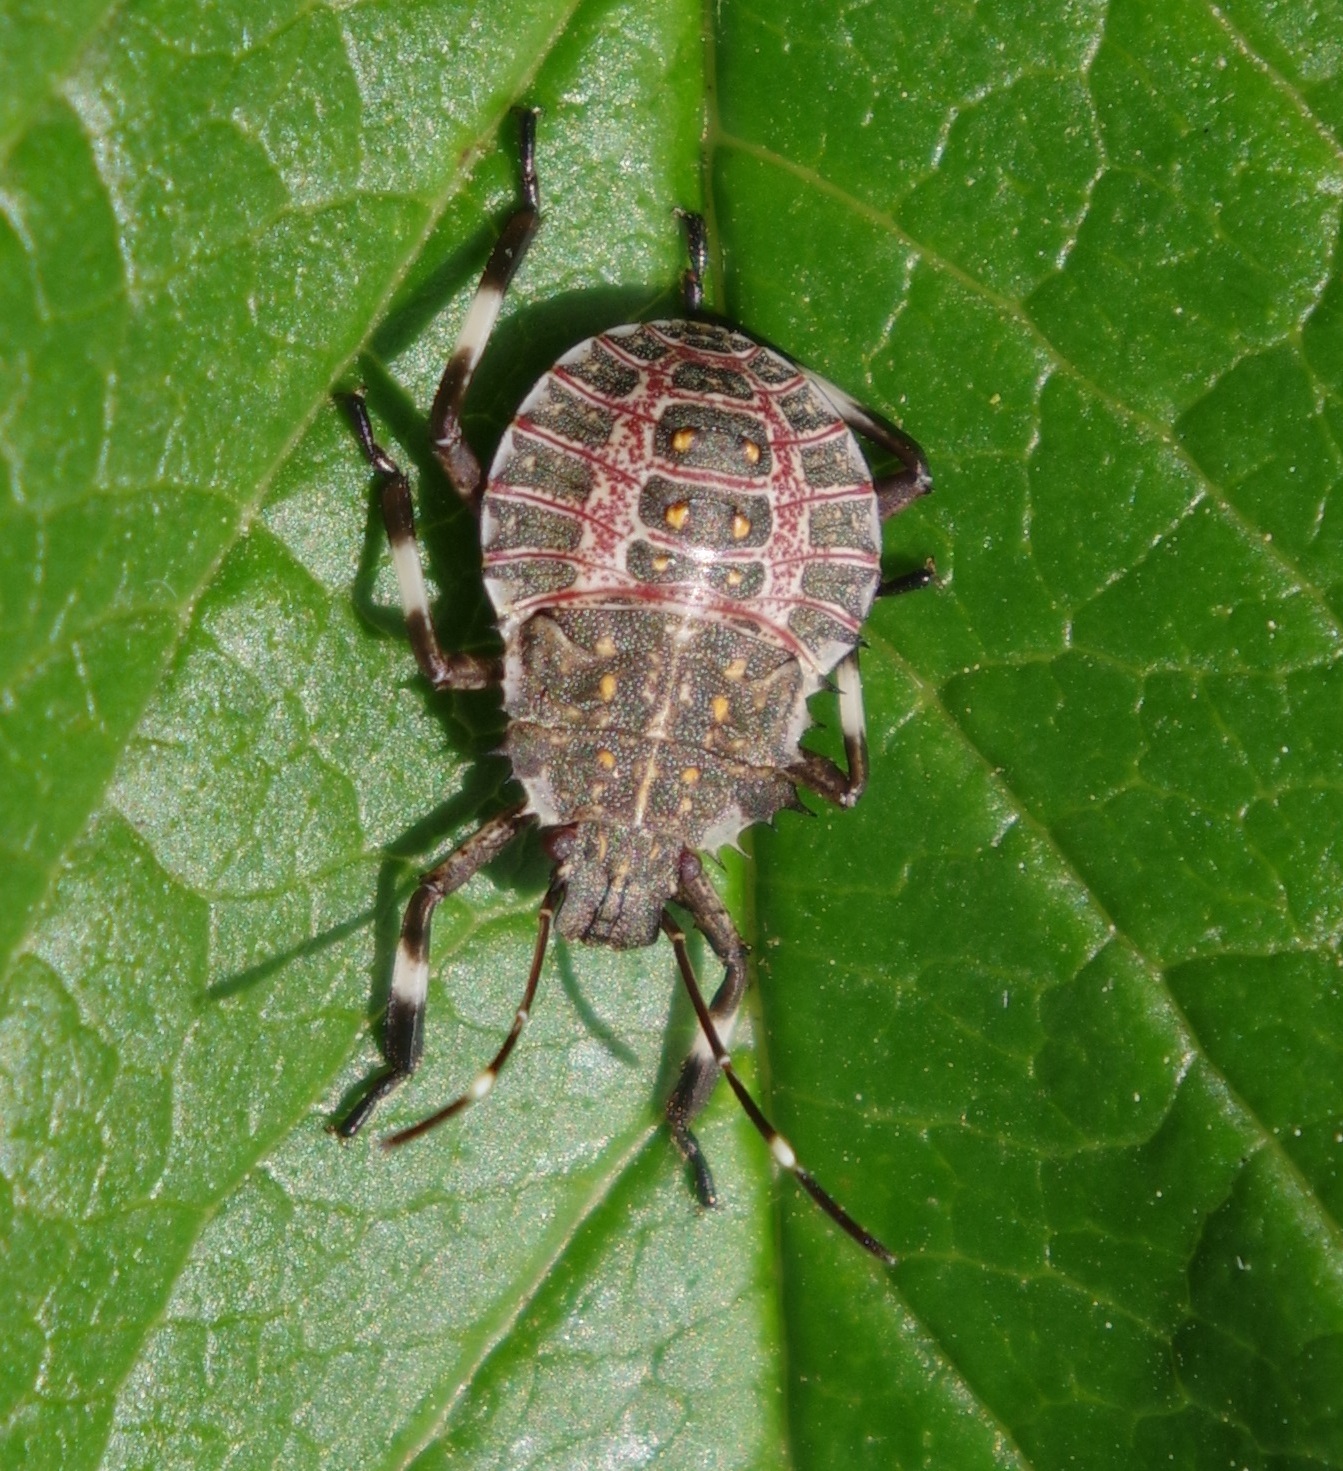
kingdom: Animalia
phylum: Arthropoda
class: Insecta
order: Hemiptera
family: Pentatomidae
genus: Halyomorpha
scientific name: Halyomorpha halys
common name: Brown marmorated stink bug
